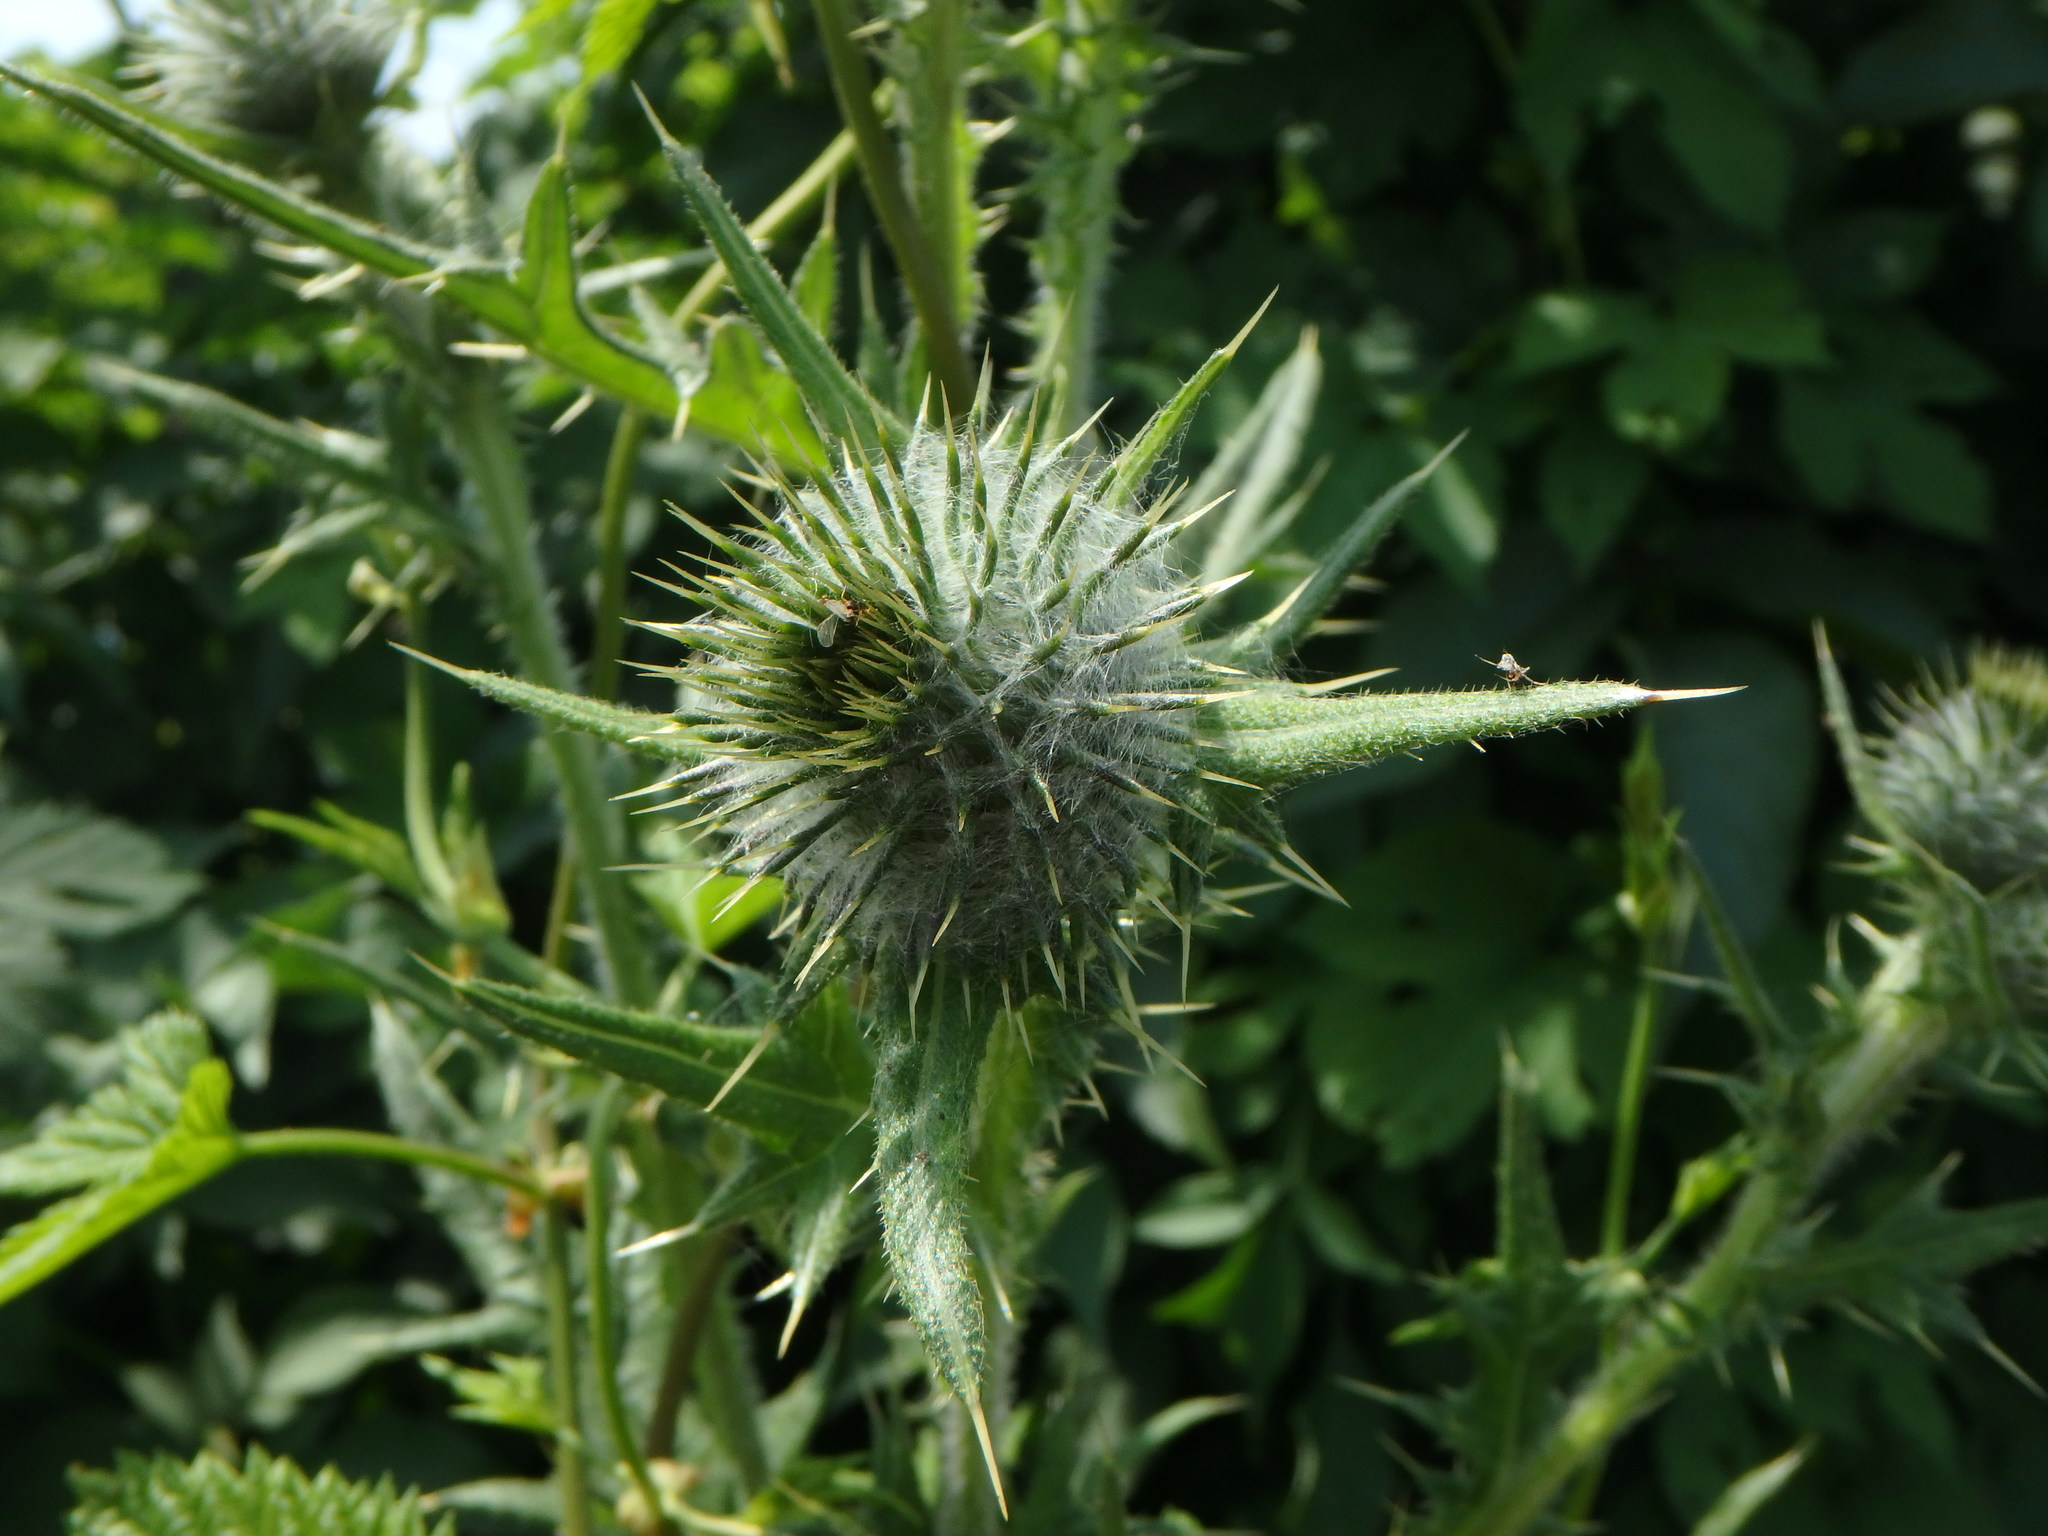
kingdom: Plantae
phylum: Tracheophyta
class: Magnoliopsida
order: Asterales
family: Asteraceae
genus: Cirsium
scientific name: Cirsium vulgare
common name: Bull thistle
